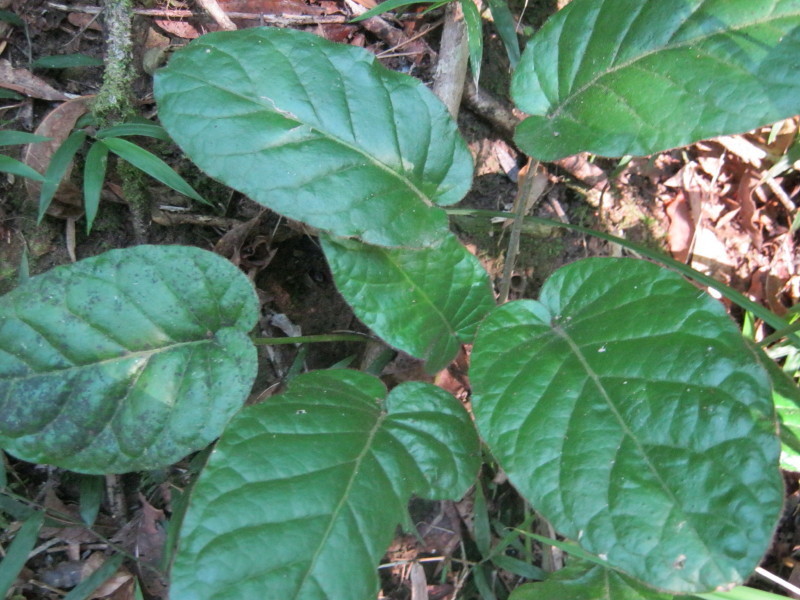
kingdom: Plantae
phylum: Tracheophyta
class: Magnoliopsida
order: Asterales
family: Asteraceae
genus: Piloselloides
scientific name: Piloselloides cordata
